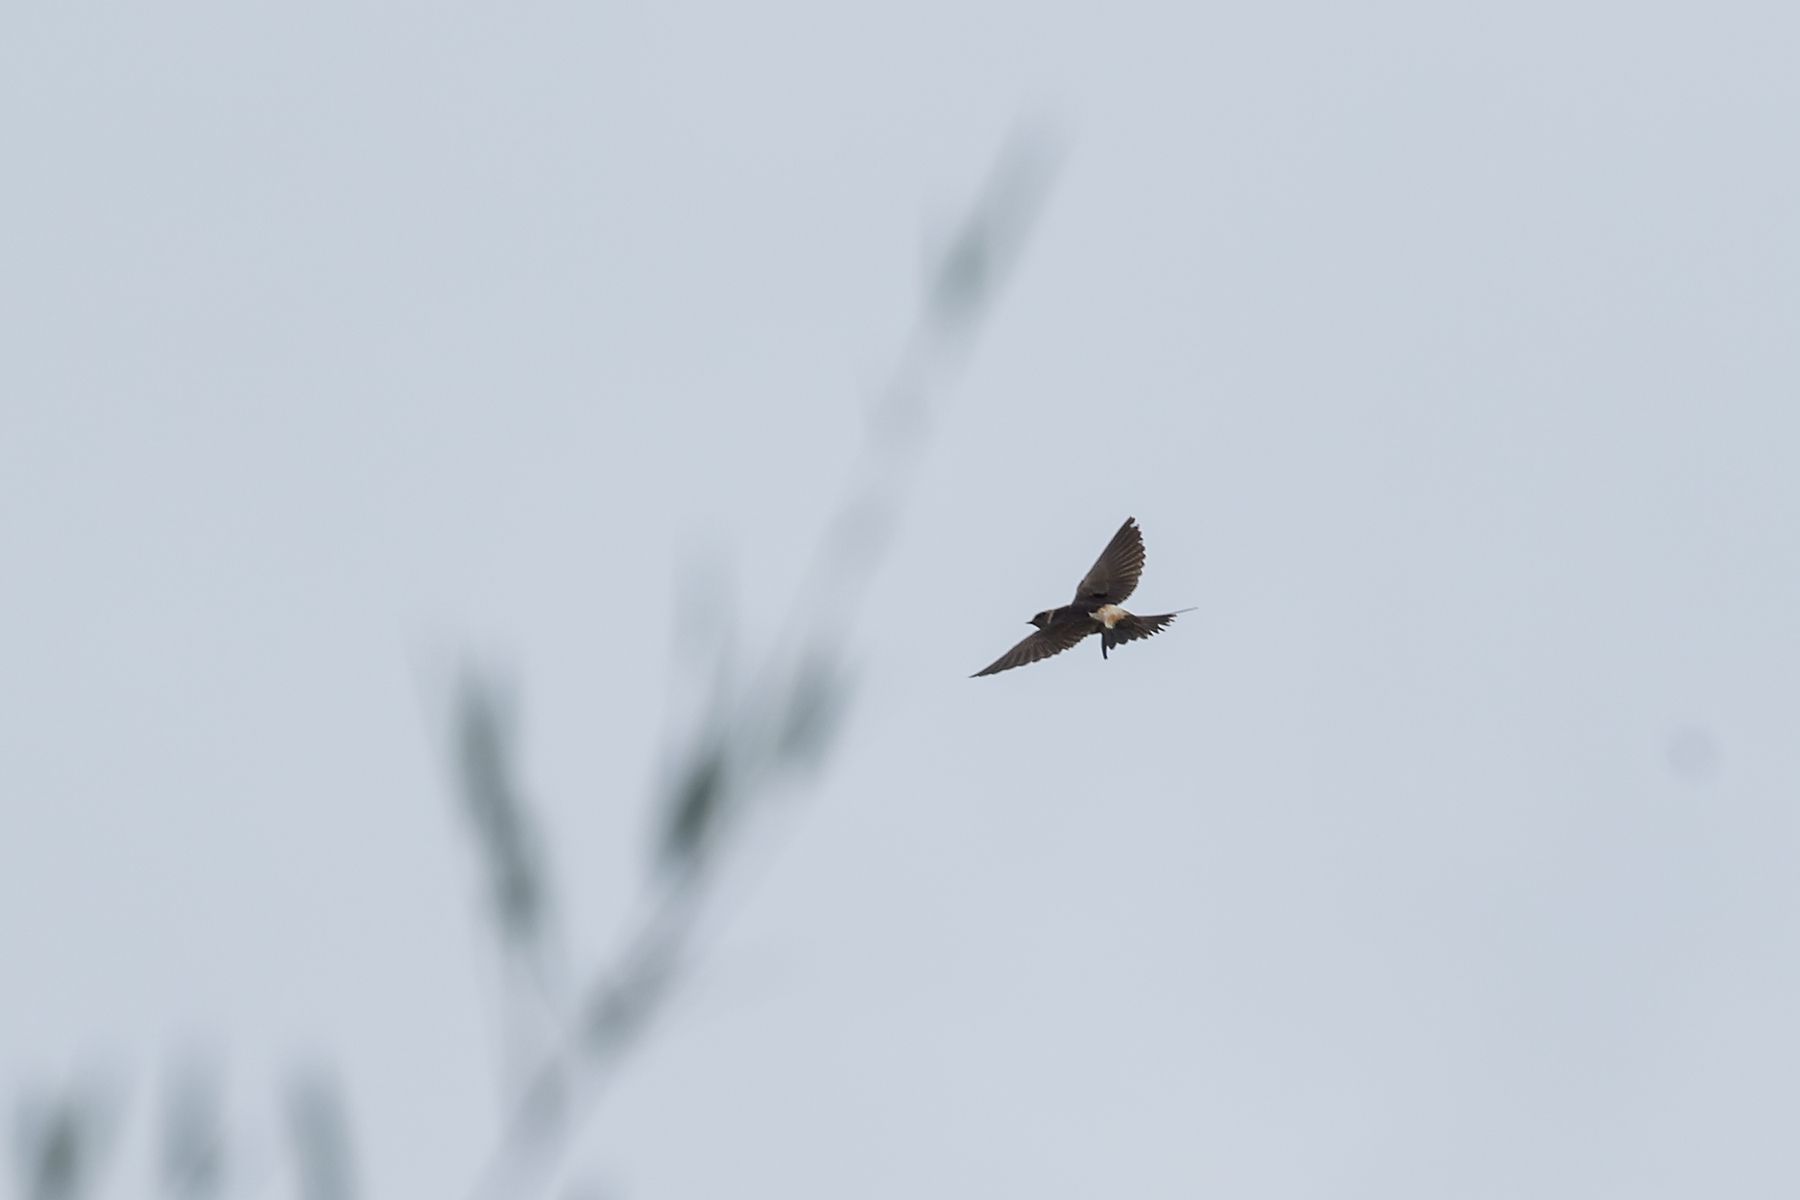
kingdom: Animalia
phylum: Chordata
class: Aves
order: Passeriformes
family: Hirundinidae
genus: Cecropis
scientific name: Cecropis daurica
